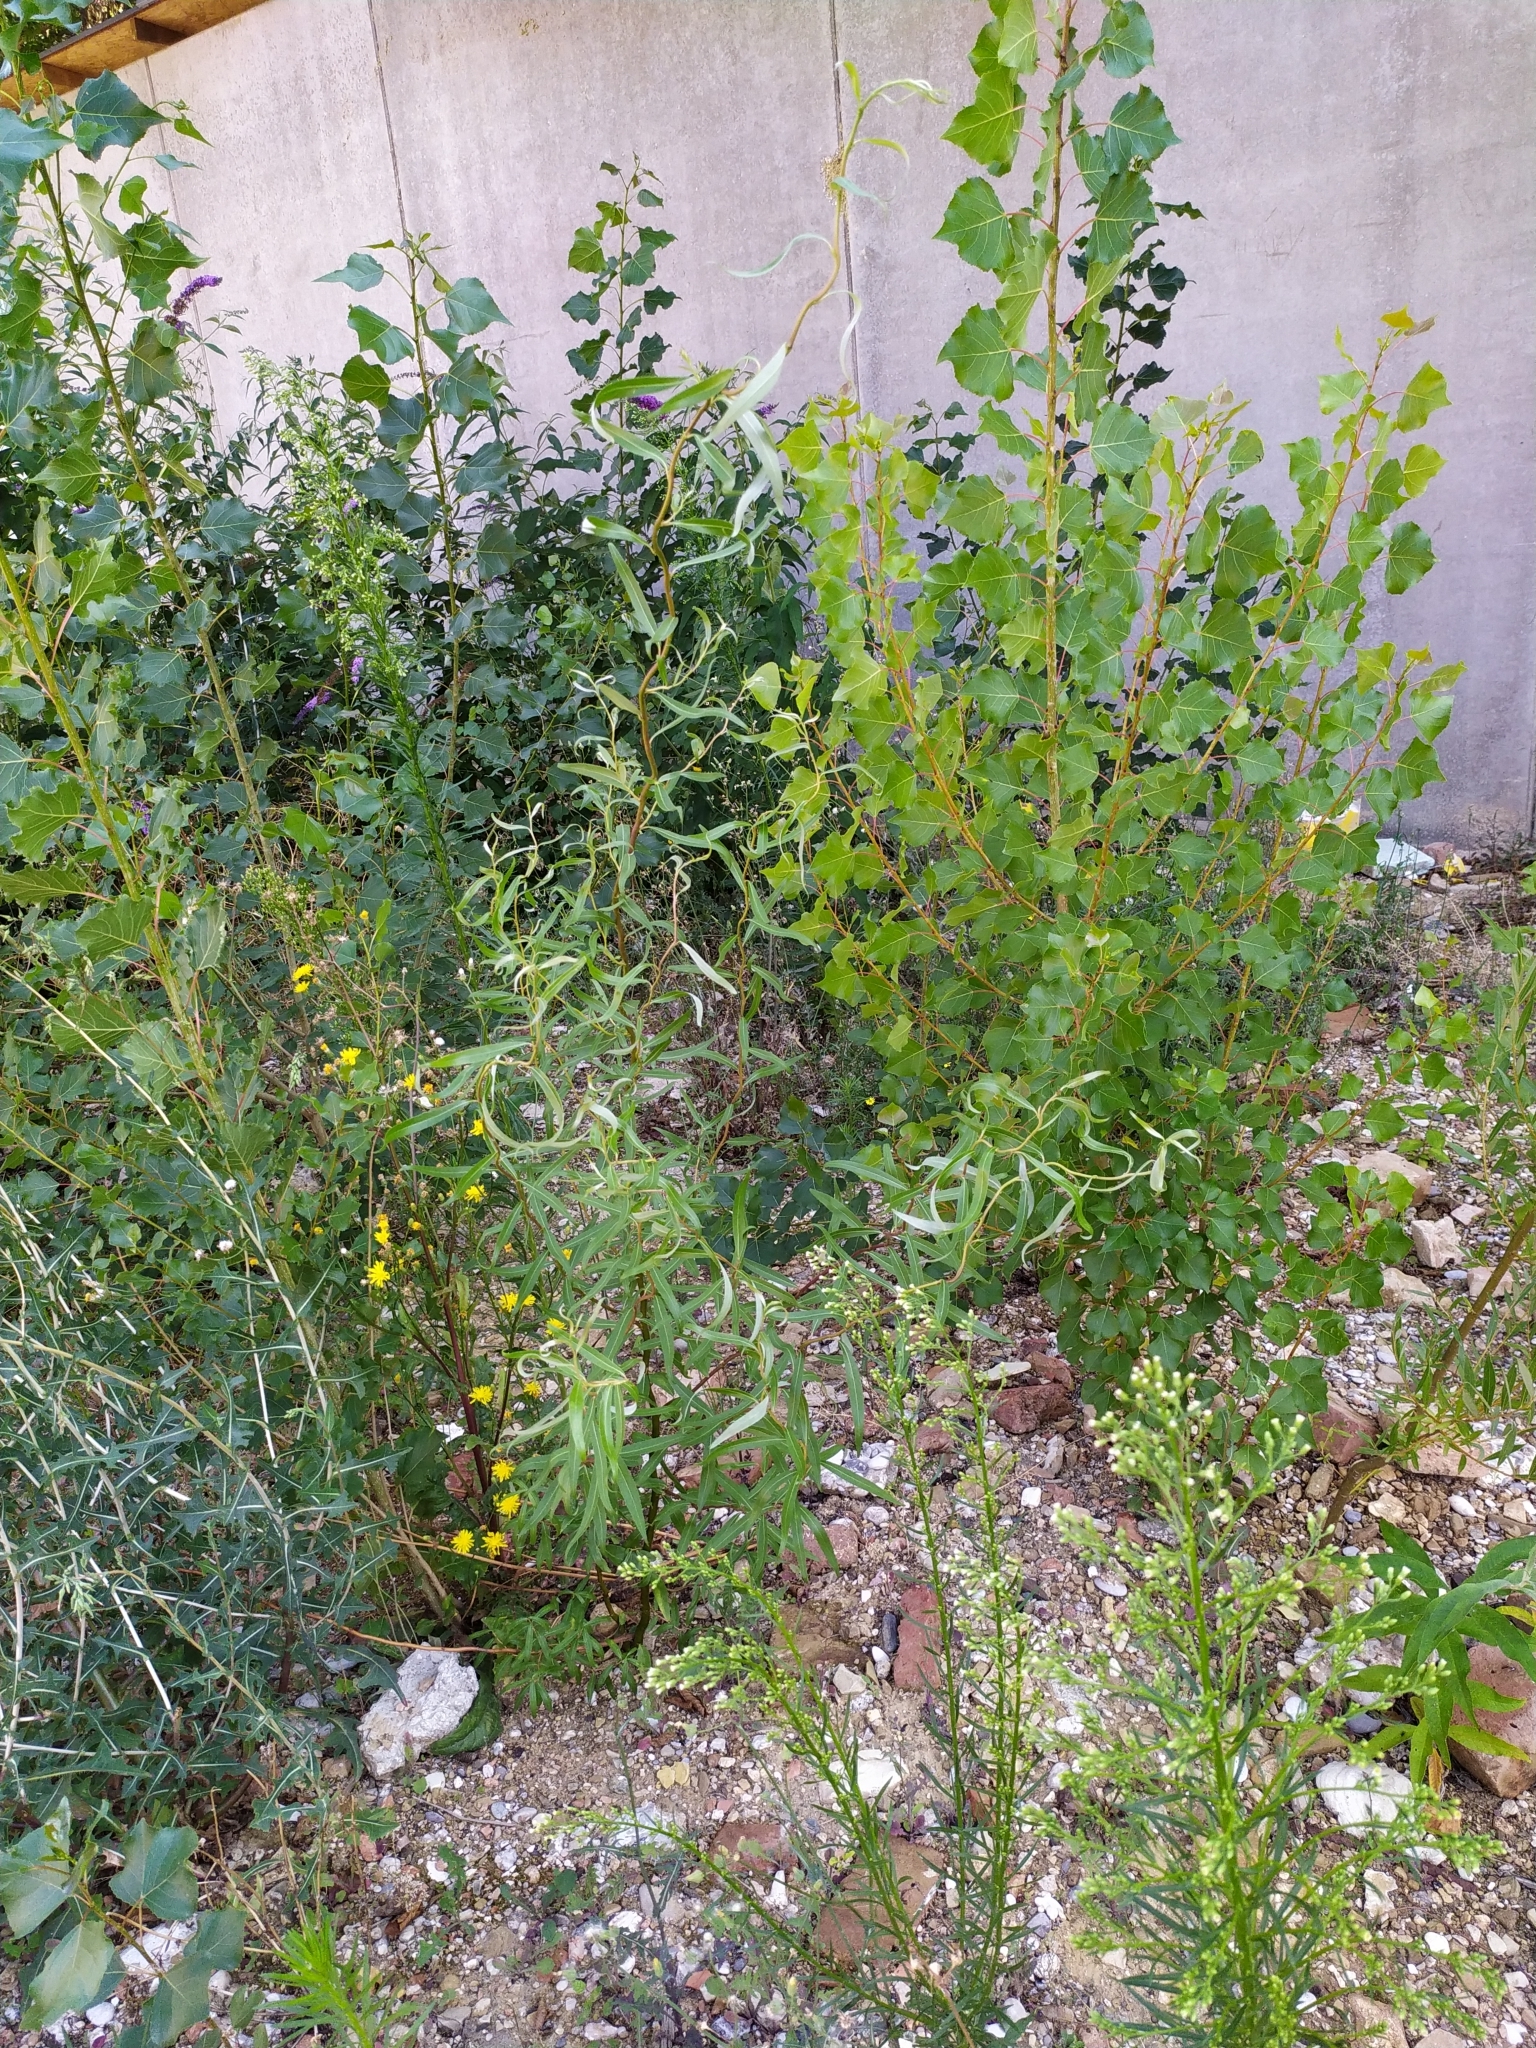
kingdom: Plantae
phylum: Tracheophyta
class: Magnoliopsida
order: Malpighiales
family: Salicaceae
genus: Salix
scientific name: Salix babylonica
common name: Weeping willow
